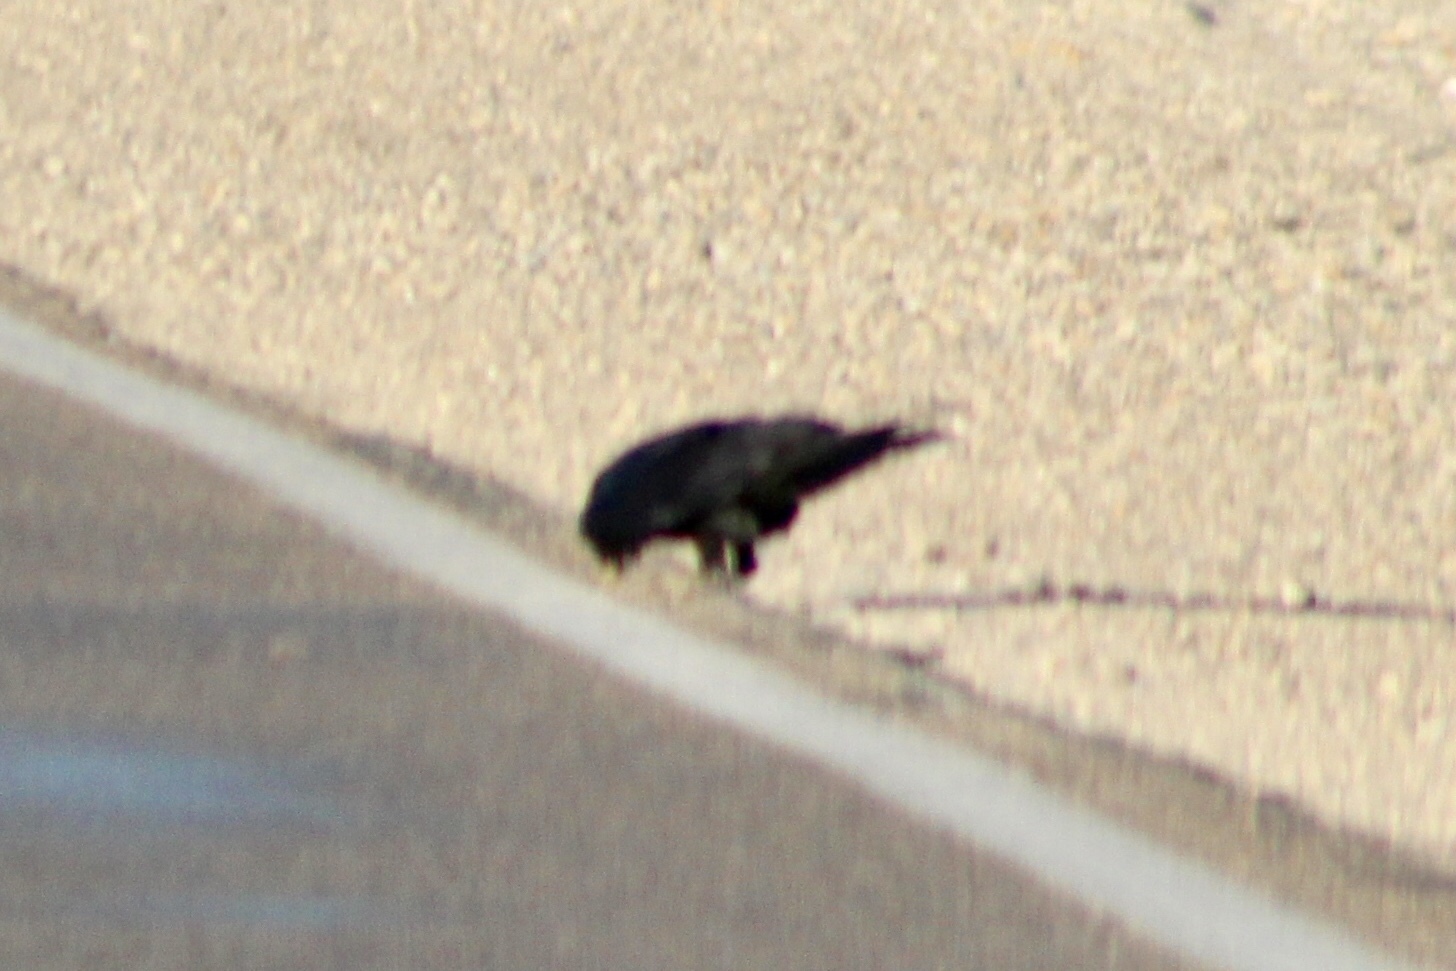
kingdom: Animalia
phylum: Chordata
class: Aves
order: Passeriformes
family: Corvidae
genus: Corvus
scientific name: Corvus corax
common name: Common raven
